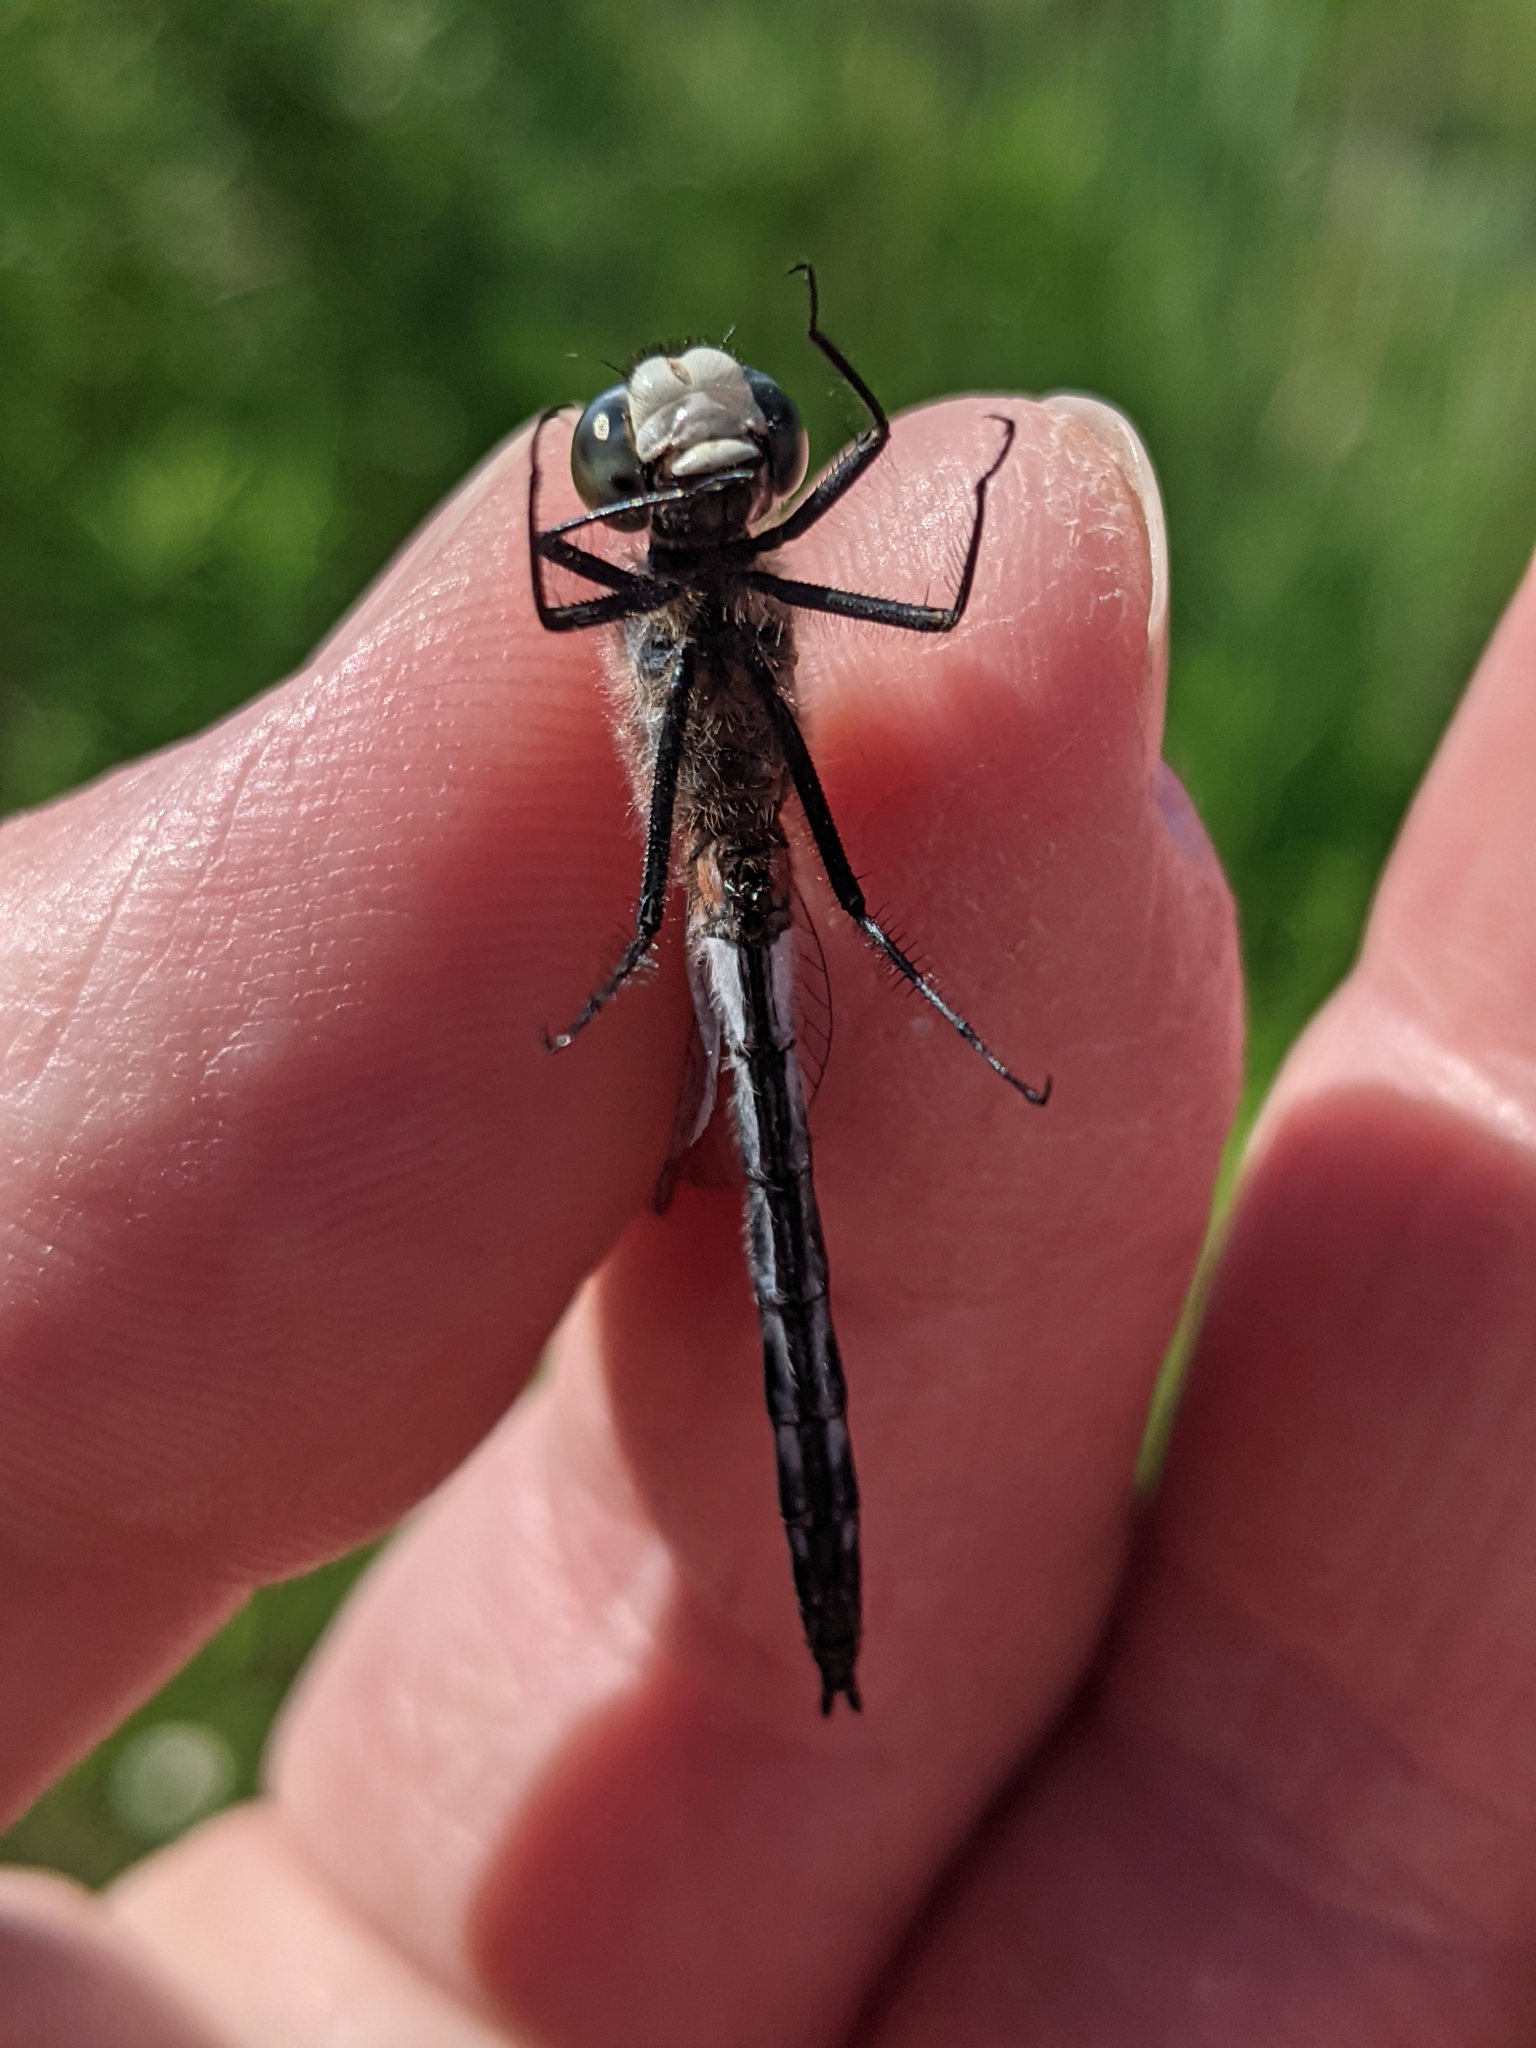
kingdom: Animalia
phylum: Arthropoda
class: Insecta
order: Odonata
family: Libellulidae
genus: Leucorrhinia
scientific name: Leucorrhinia proxima
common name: Belted whiteface
